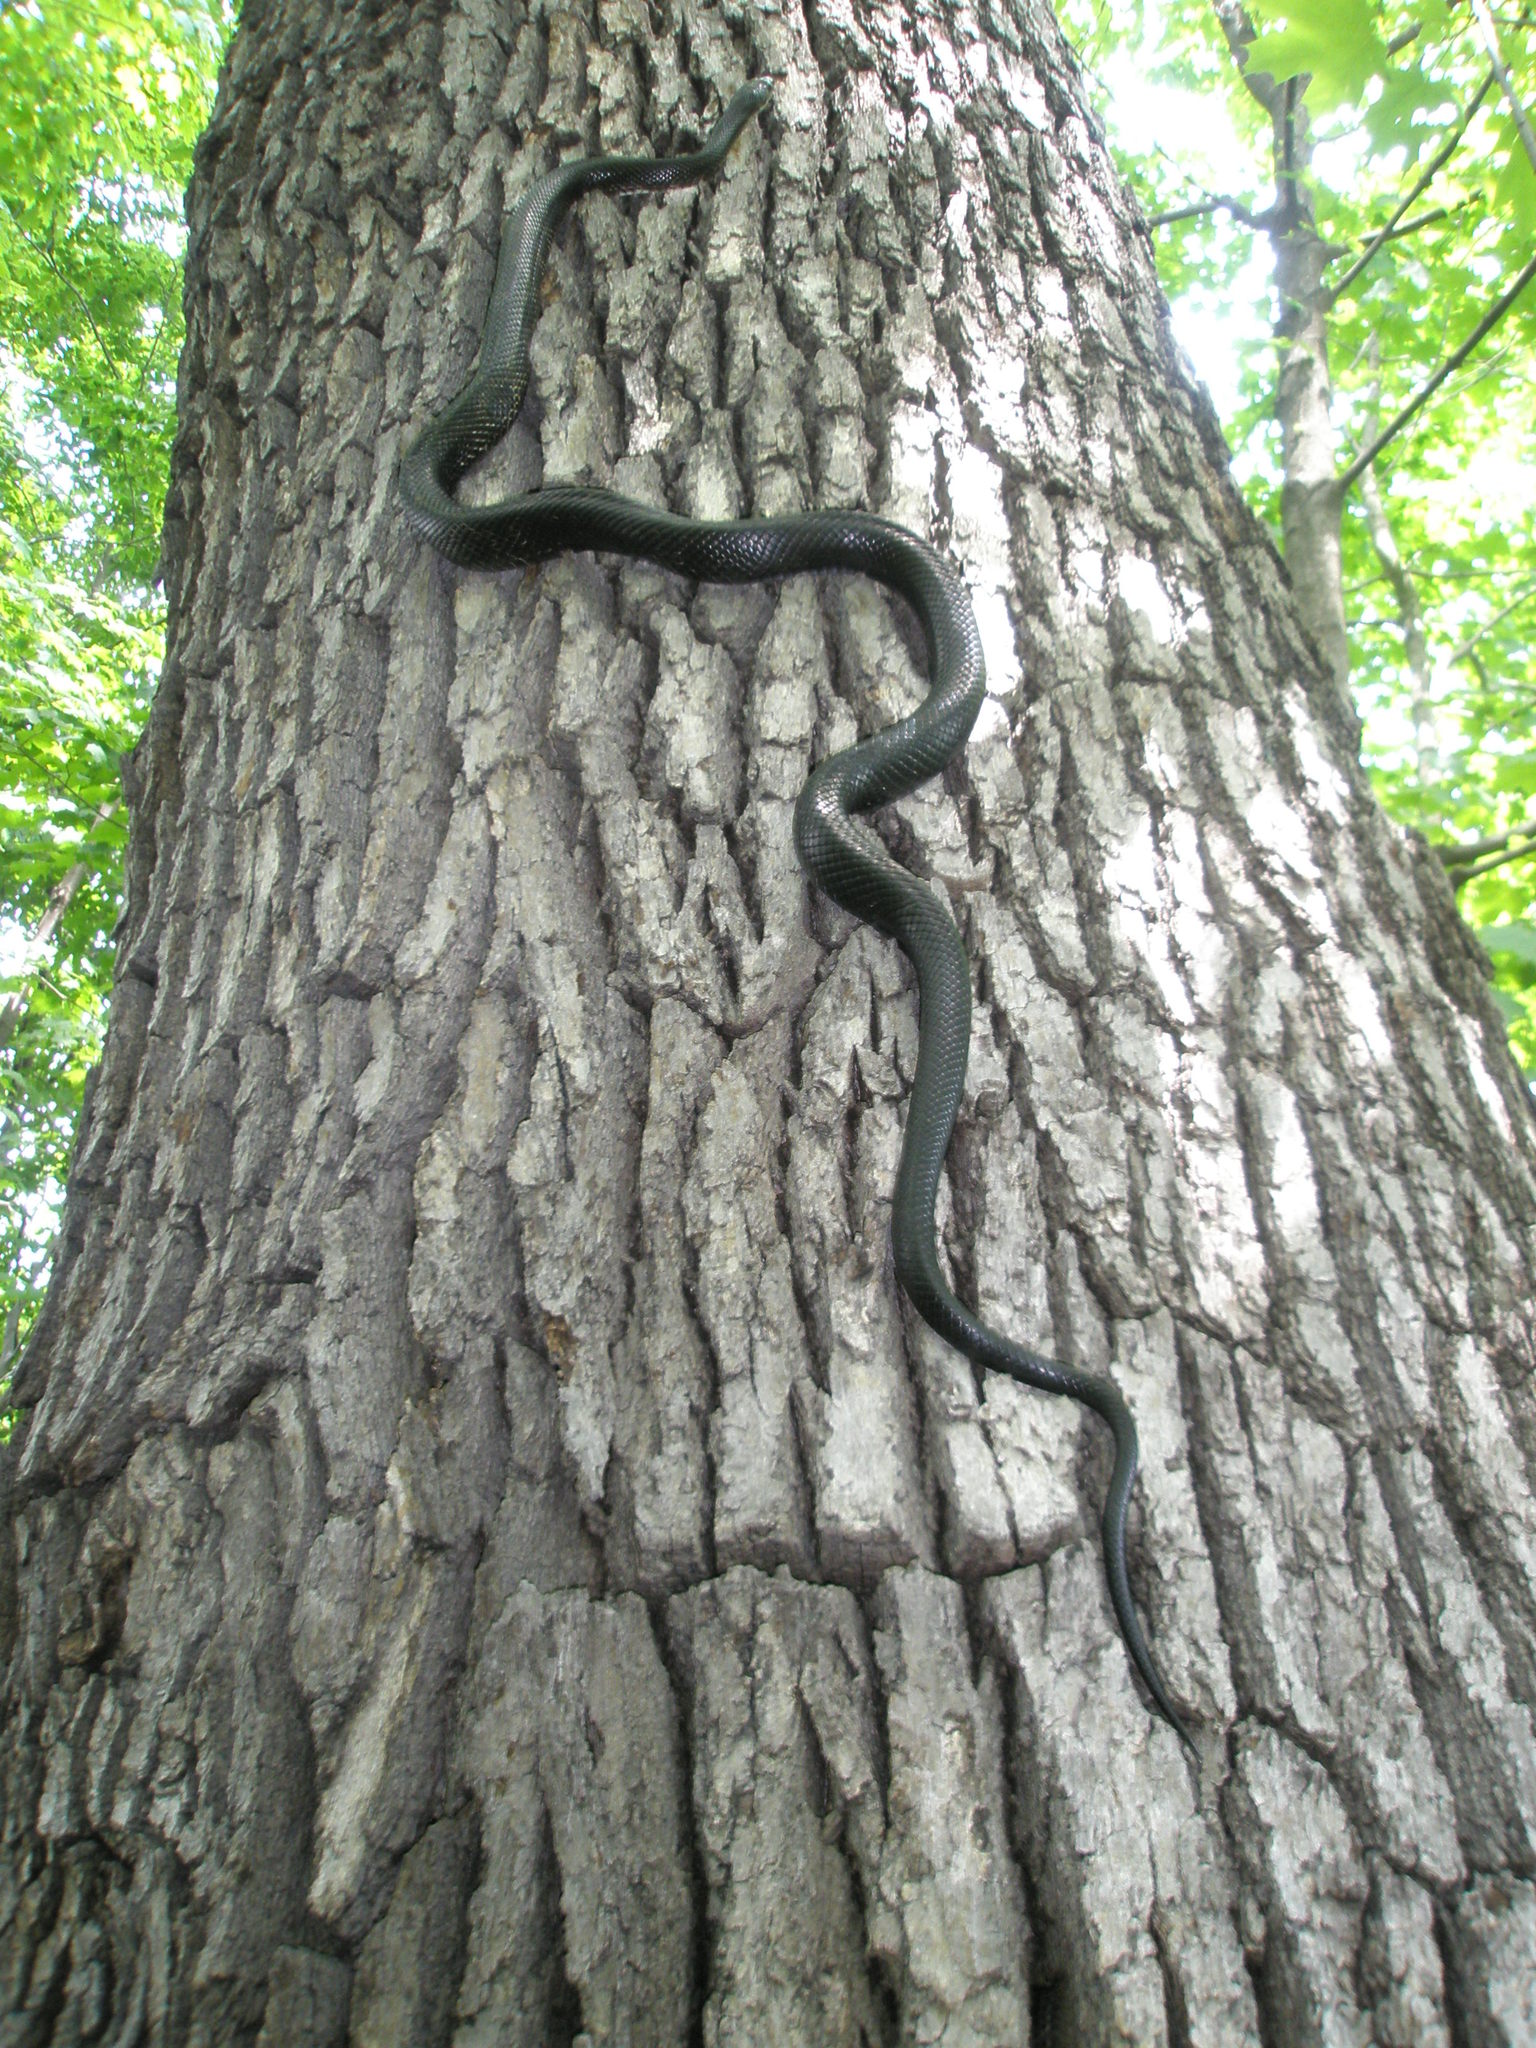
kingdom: Animalia
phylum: Chordata
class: Squamata
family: Colubridae
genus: Pantherophis
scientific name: Pantherophis spiloides
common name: Gray rat snake
